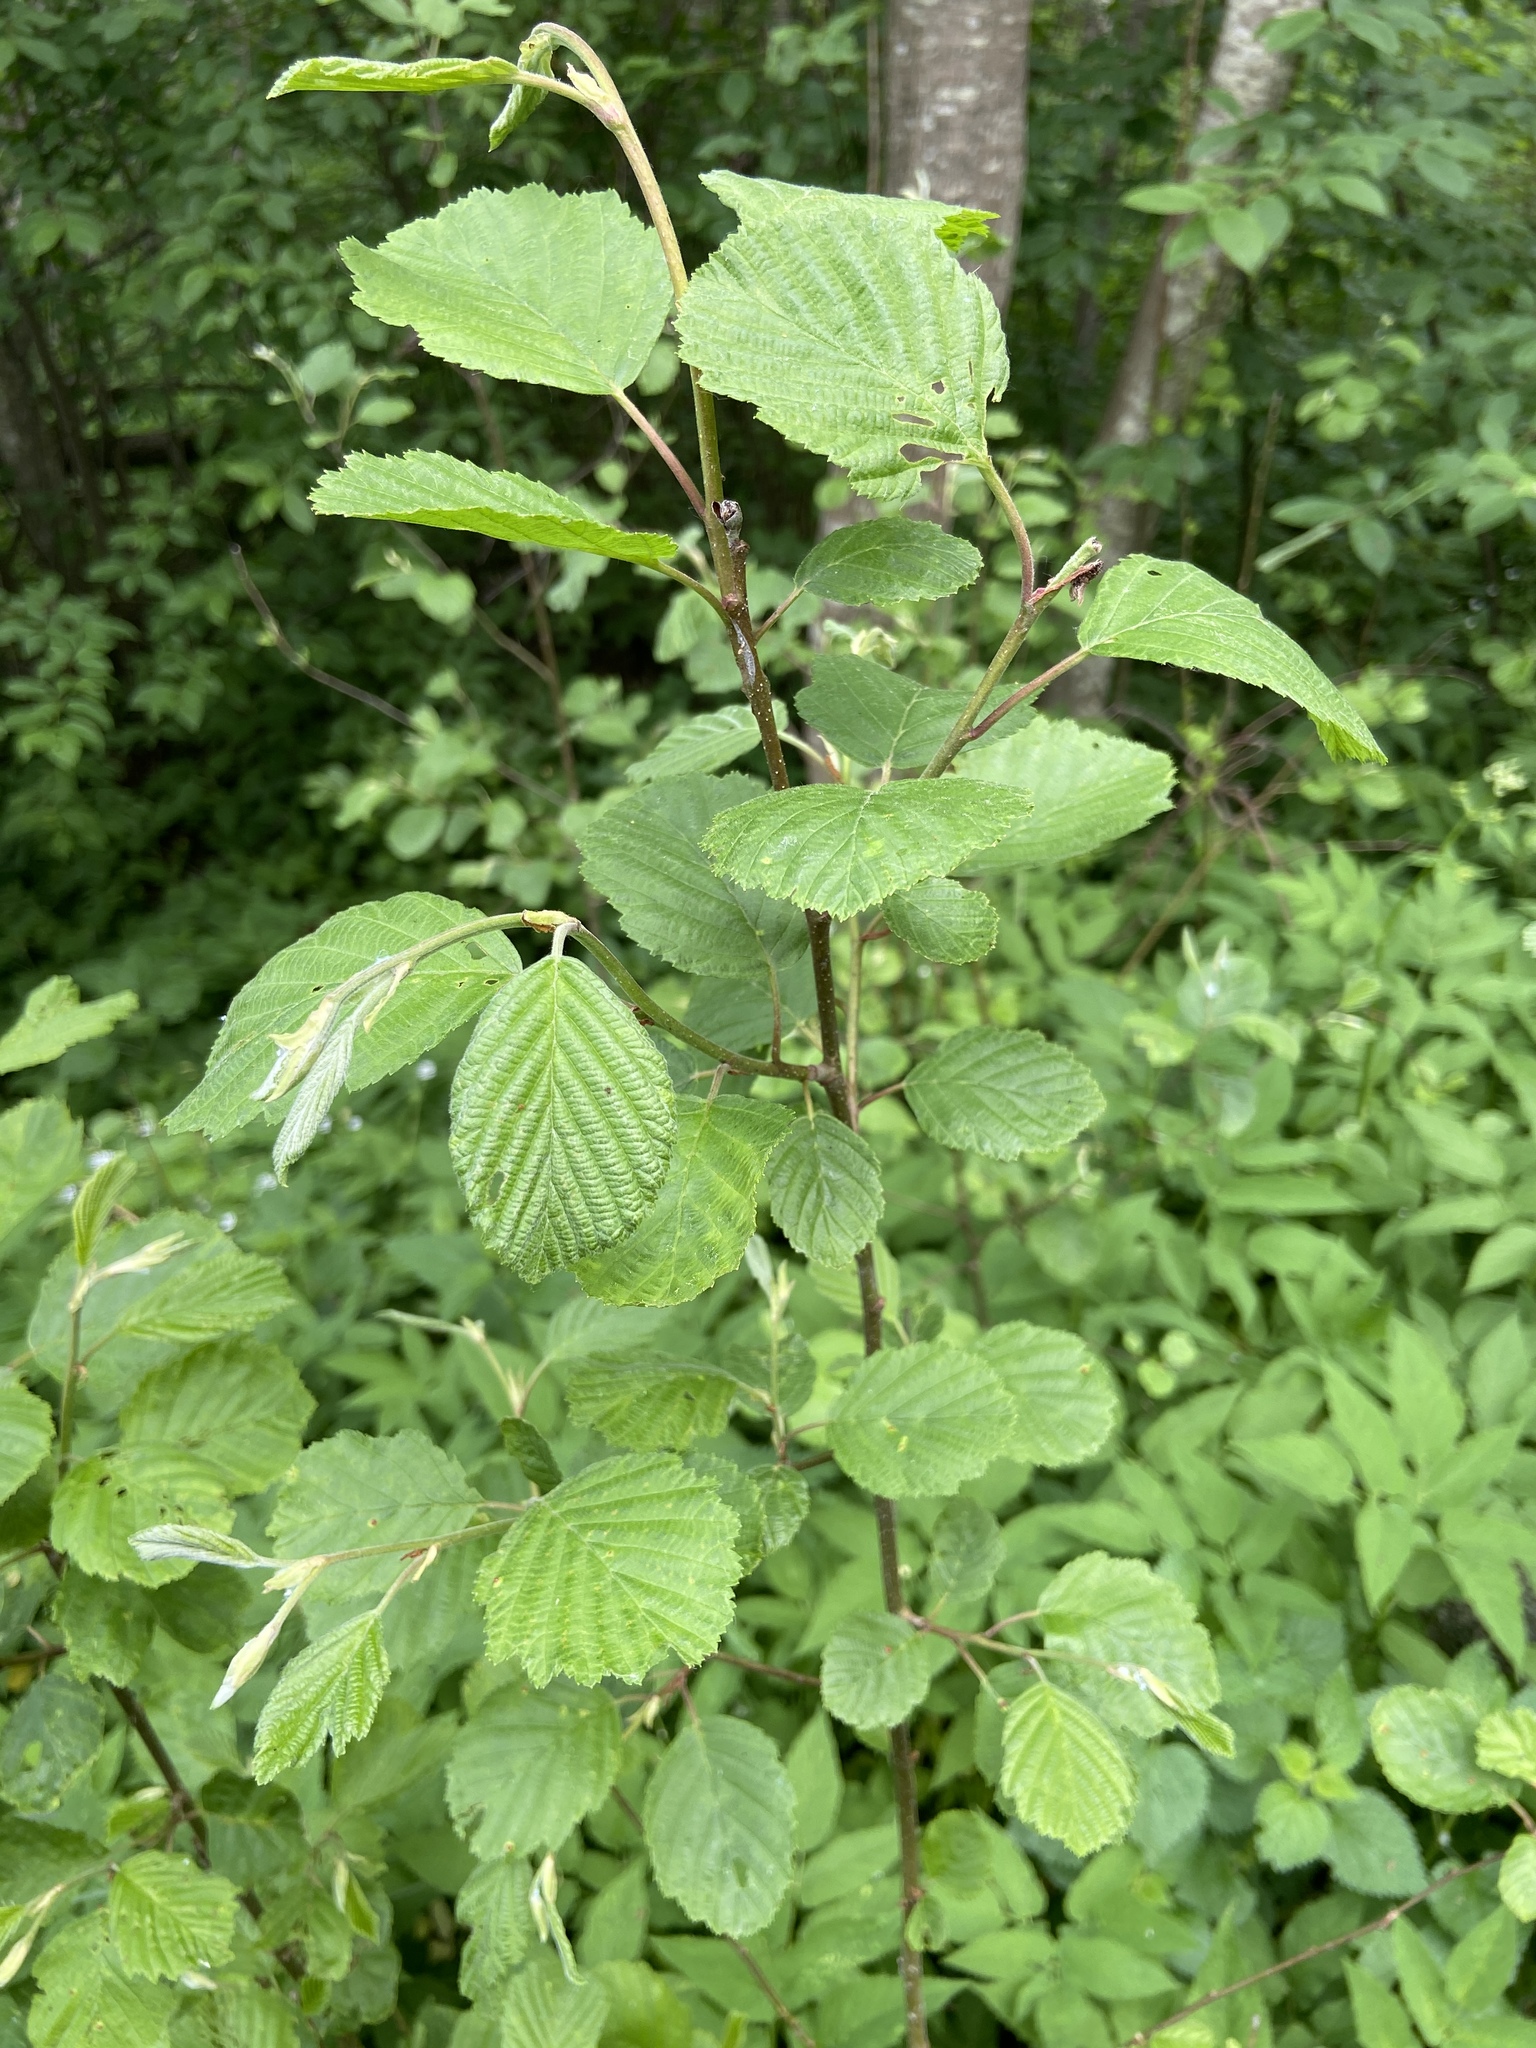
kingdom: Plantae
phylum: Tracheophyta
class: Magnoliopsida
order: Fagales
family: Betulaceae
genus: Alnus
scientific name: Alnus incana
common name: Grey alder
